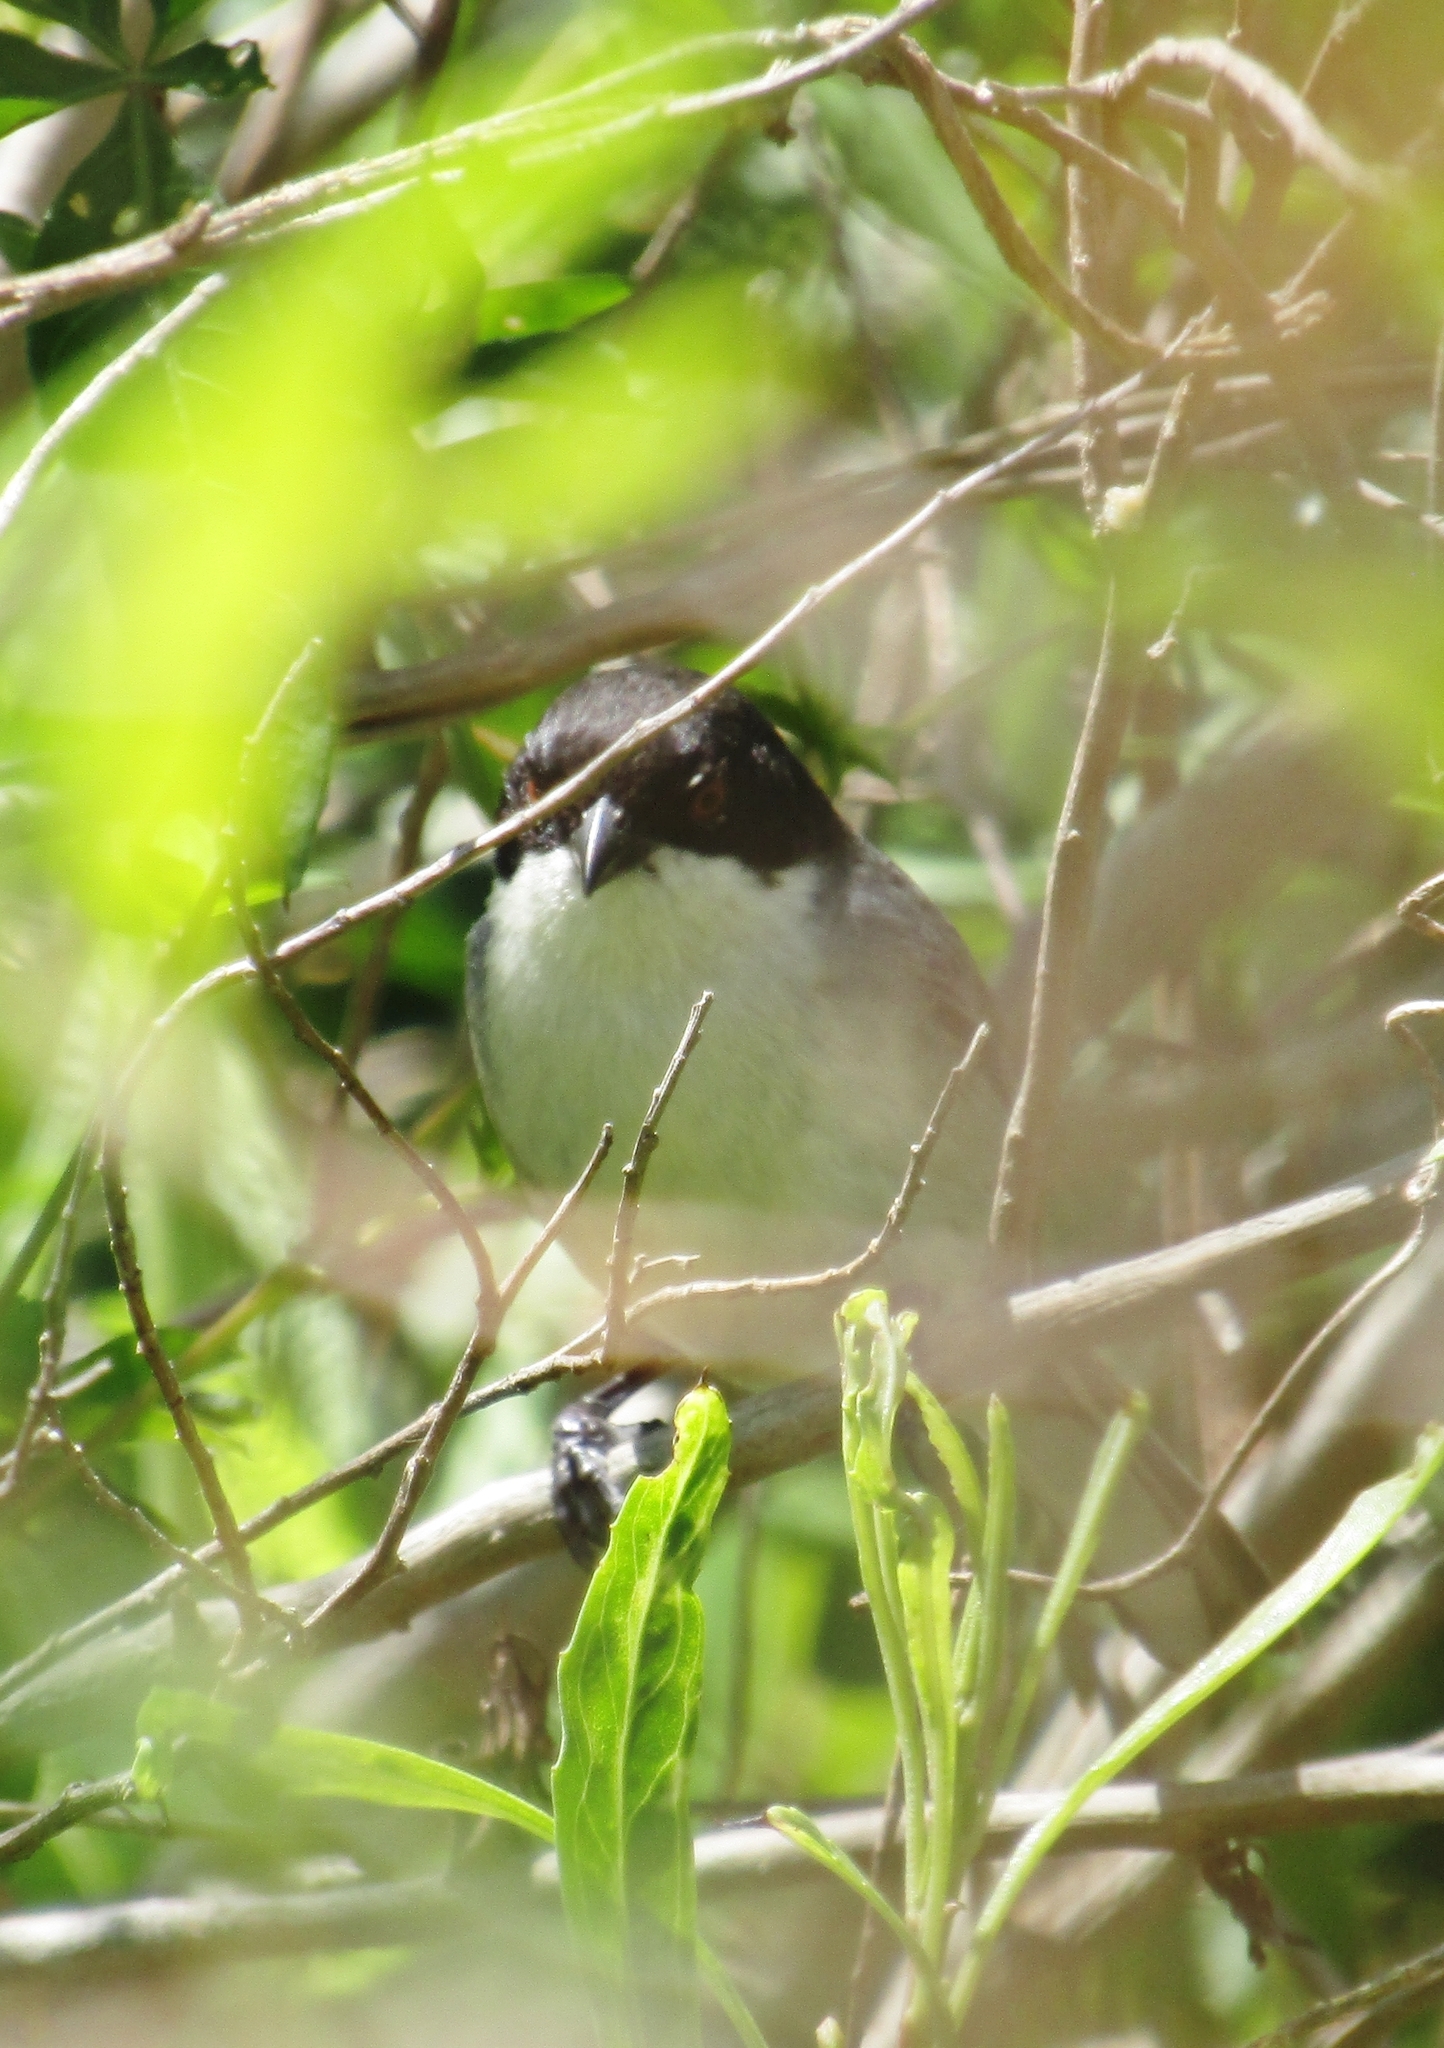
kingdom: Animalia
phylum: Chordata
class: Aves
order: Passeriformes
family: Thraupidae
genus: Microspingus
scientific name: Microspingus melanoleucus
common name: Black-capped warbling-finch
